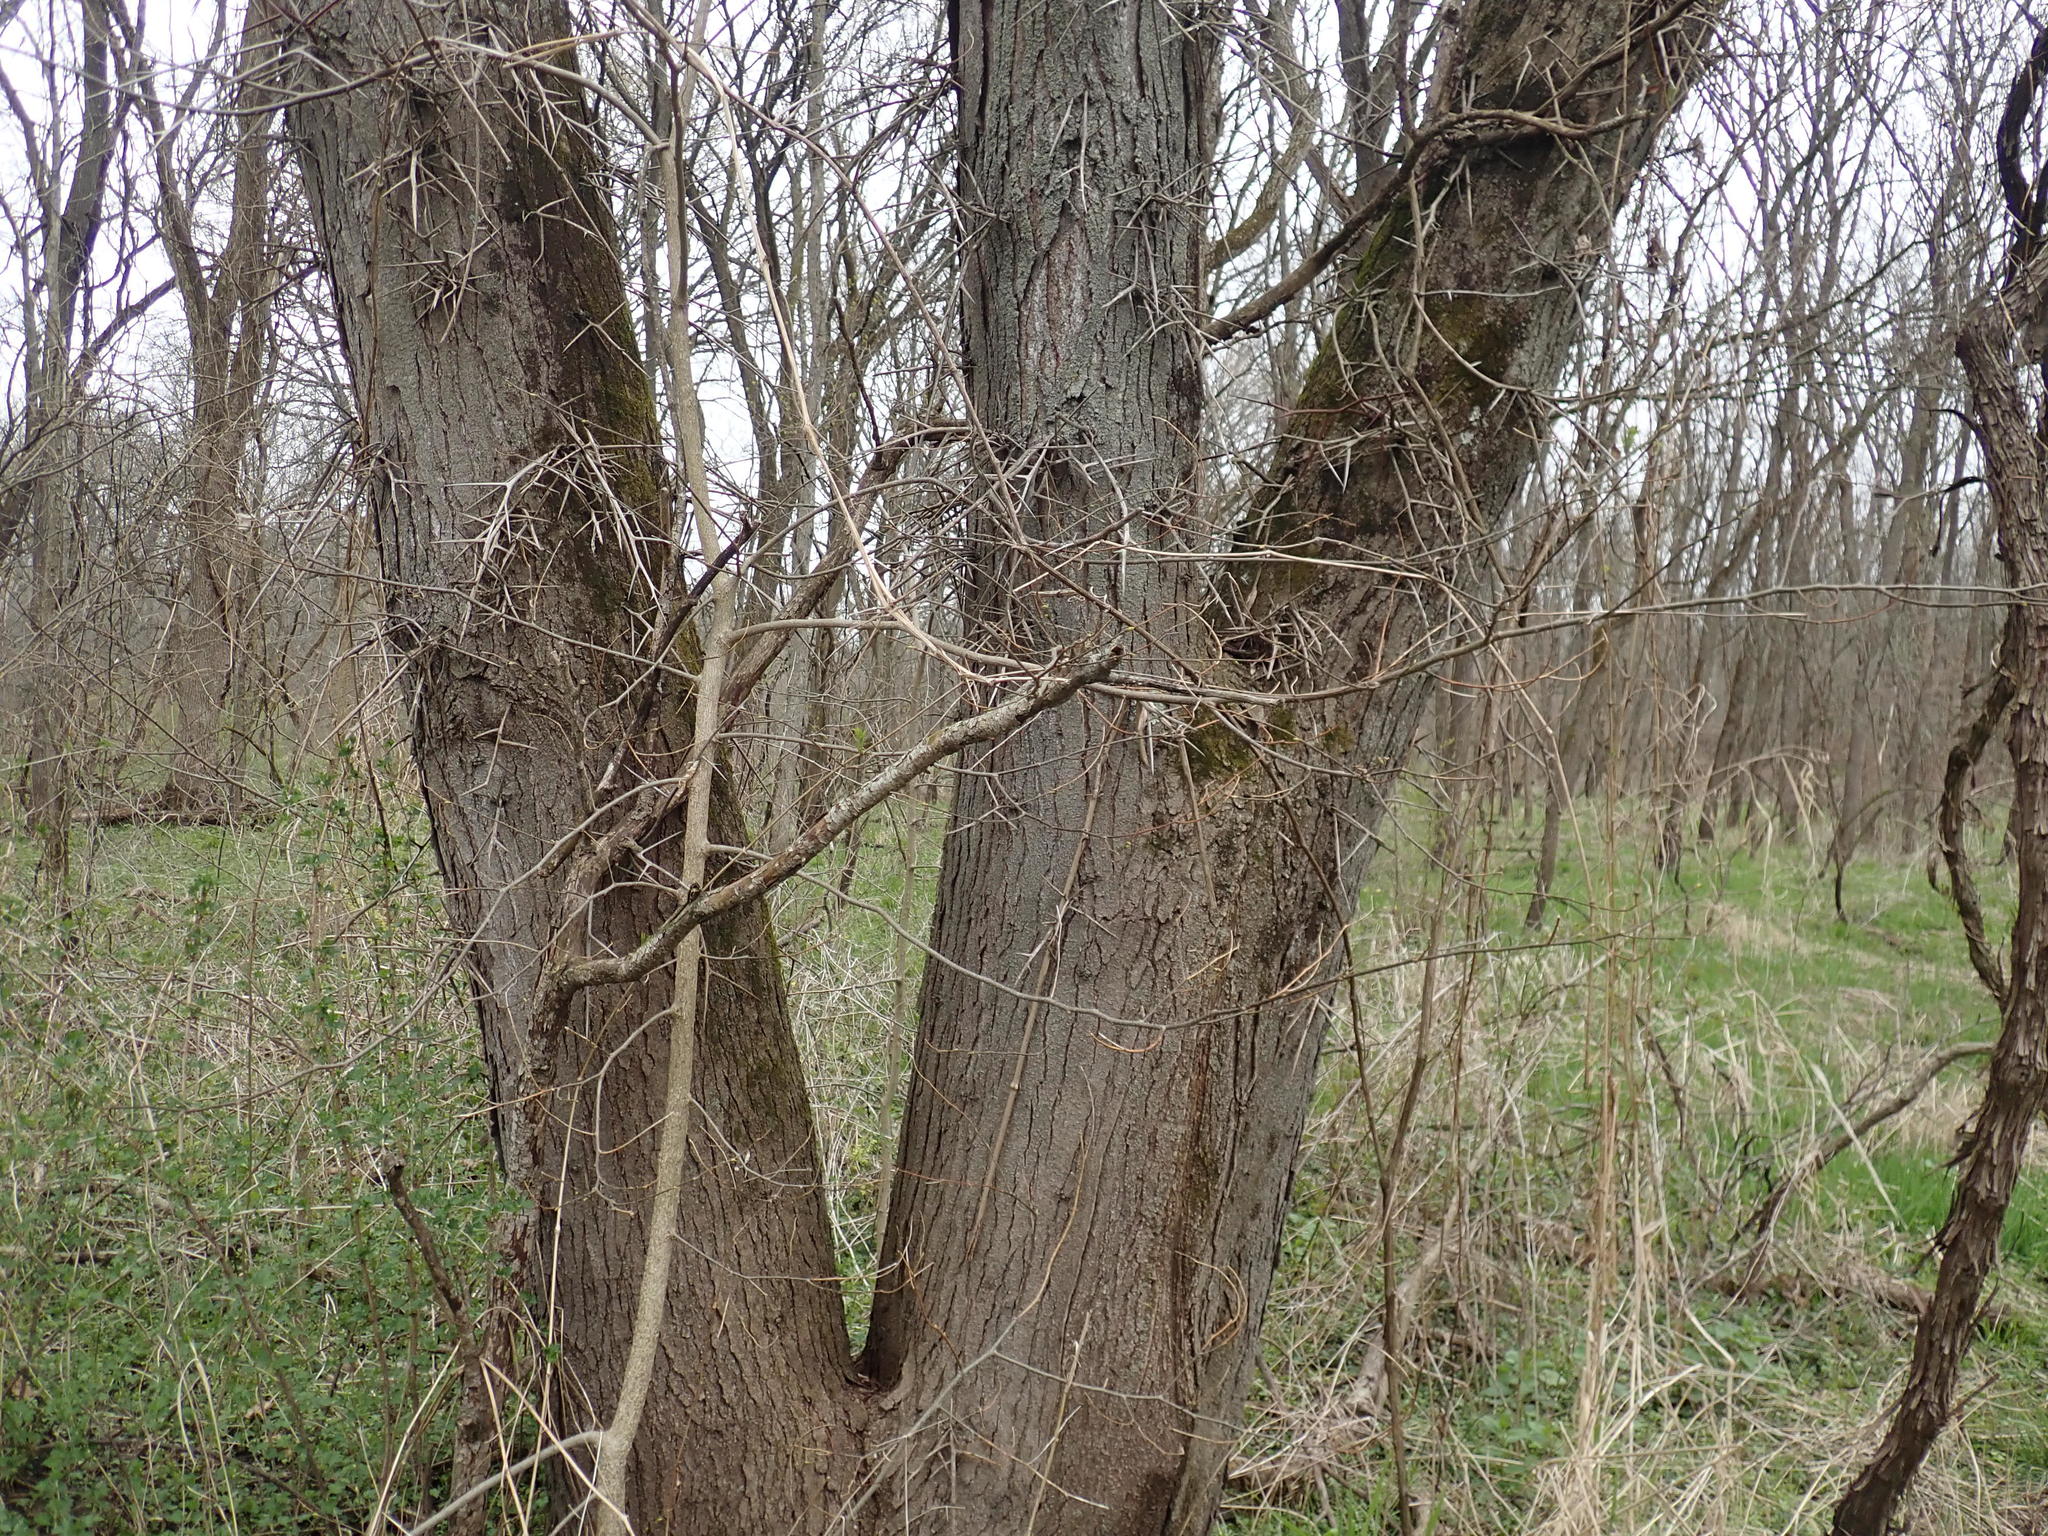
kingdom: Plantae
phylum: Tracheophyta
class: Magnoliopsida
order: Fabales
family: Fabaceae
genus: Gleditsia
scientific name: Gleditsia triacanthos
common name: Common honeylocust
